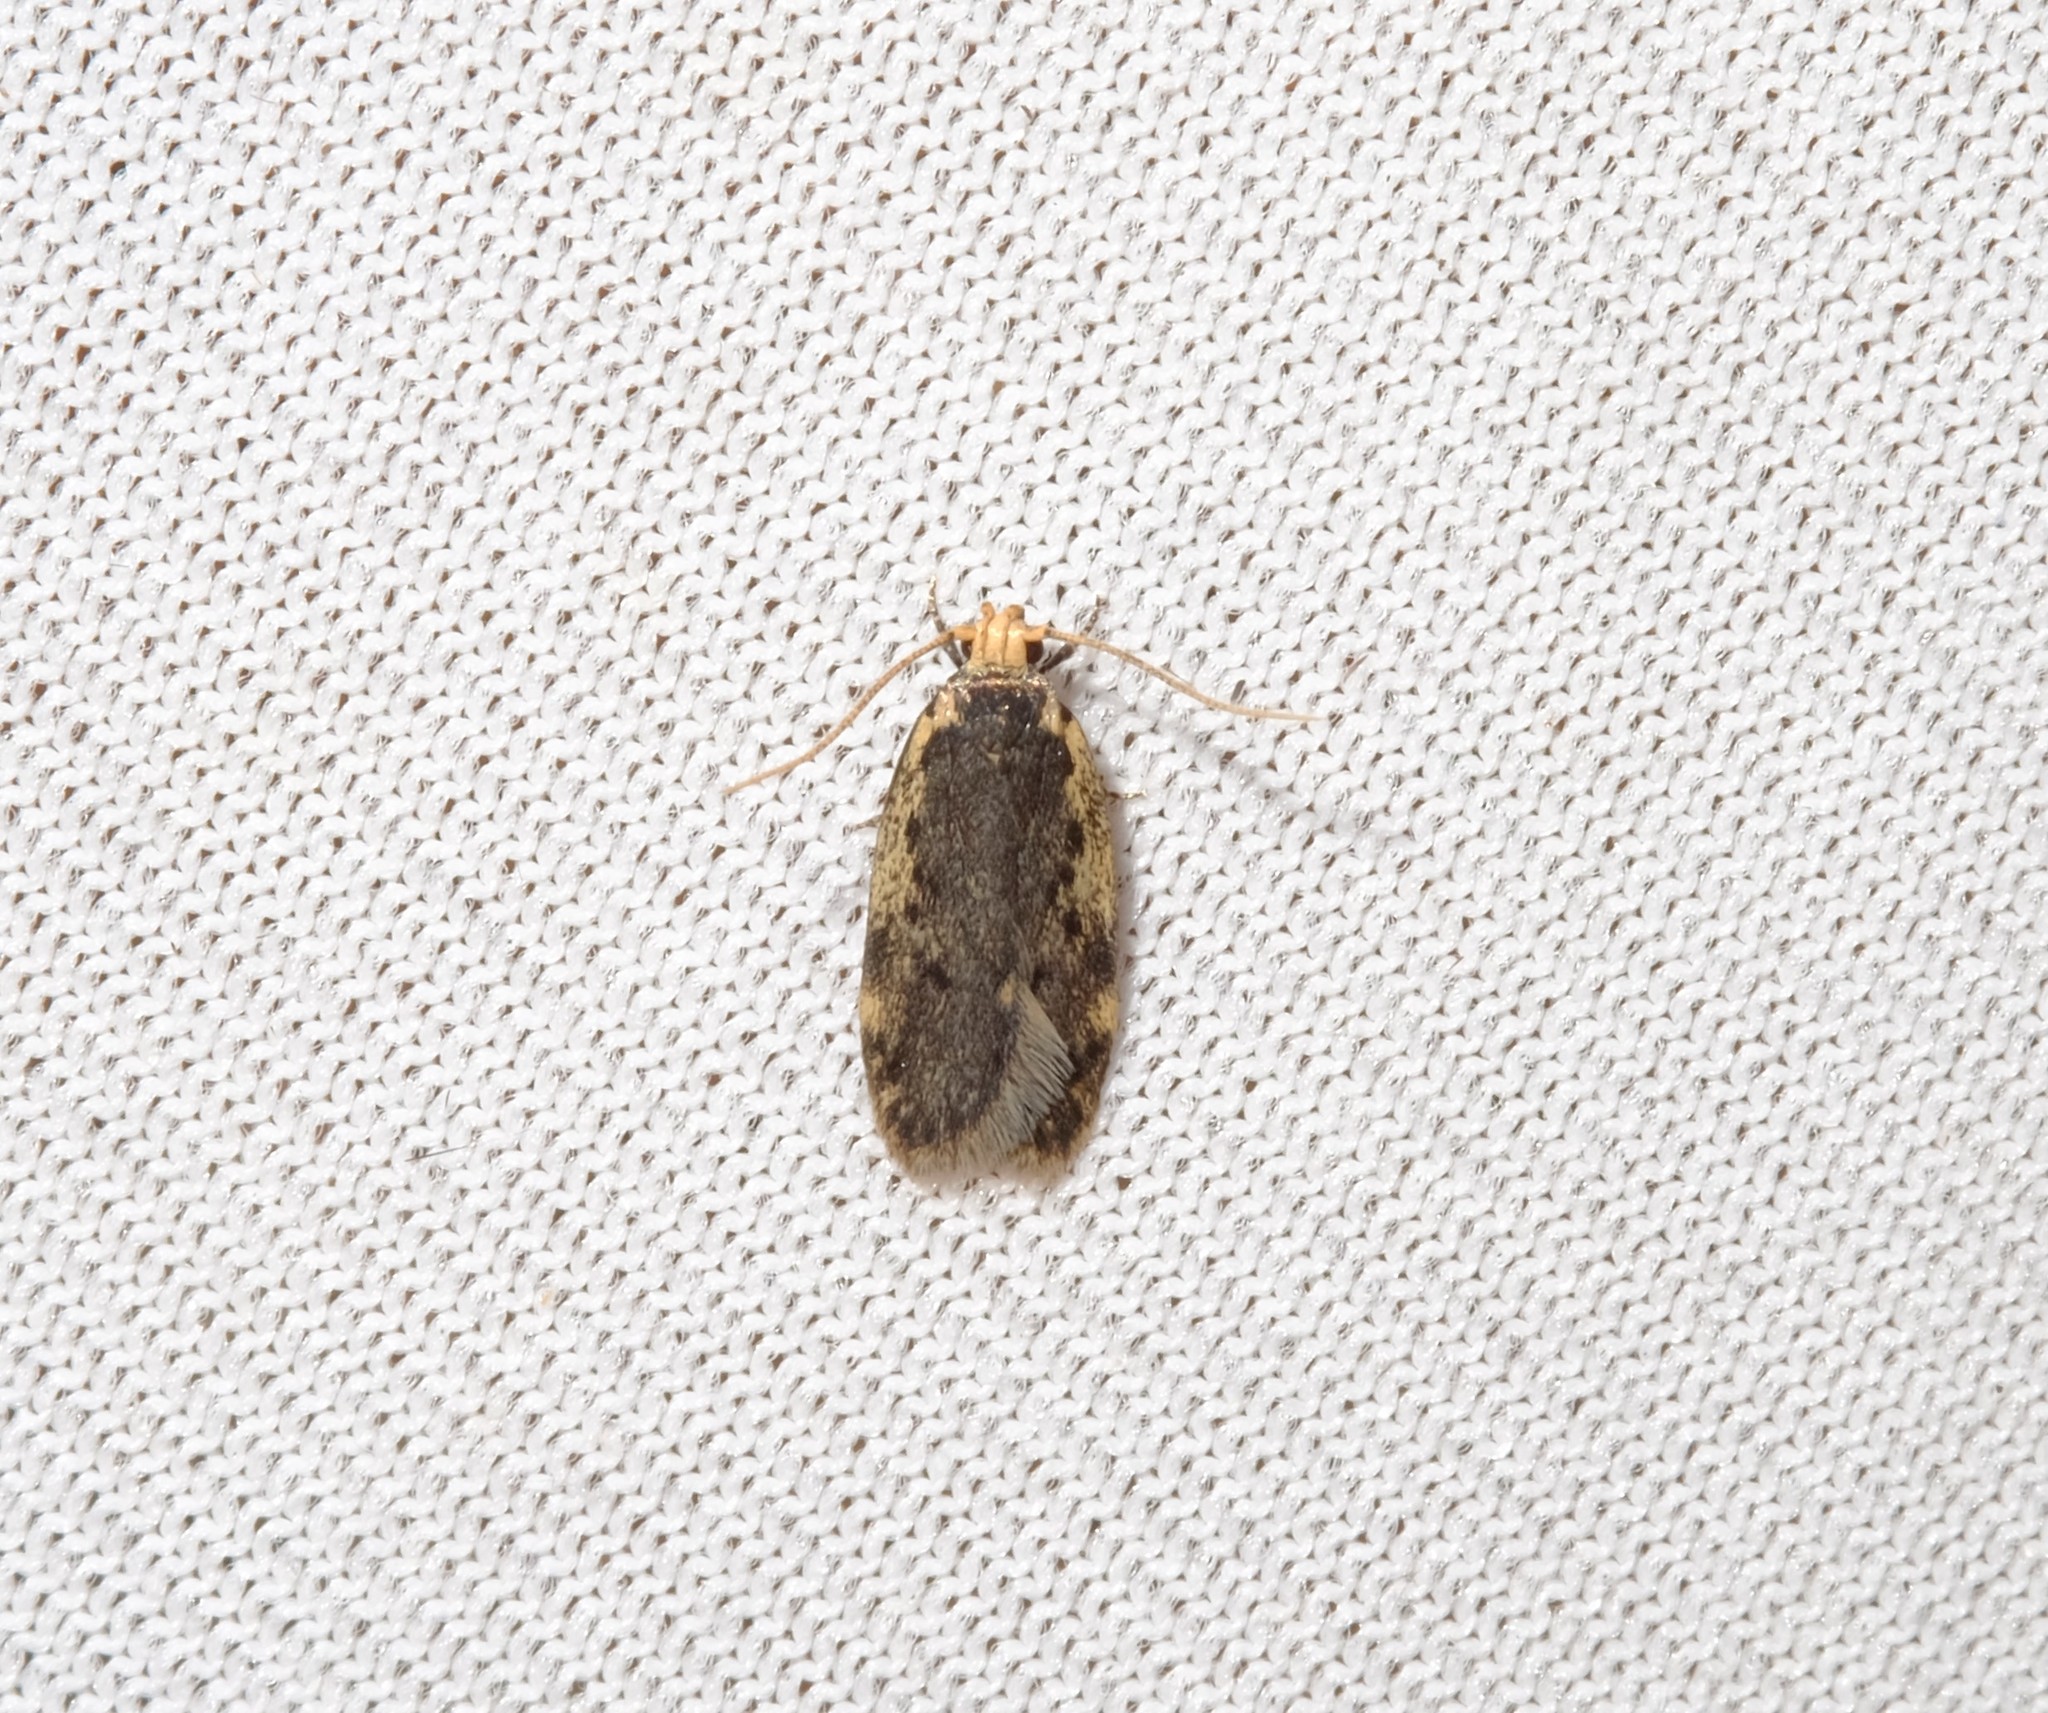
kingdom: Animalia
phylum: Arthropoda
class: Insecta
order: Lepidoptera
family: Oecophoridae
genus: Hoplostega
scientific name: Hoplostega ochroma
